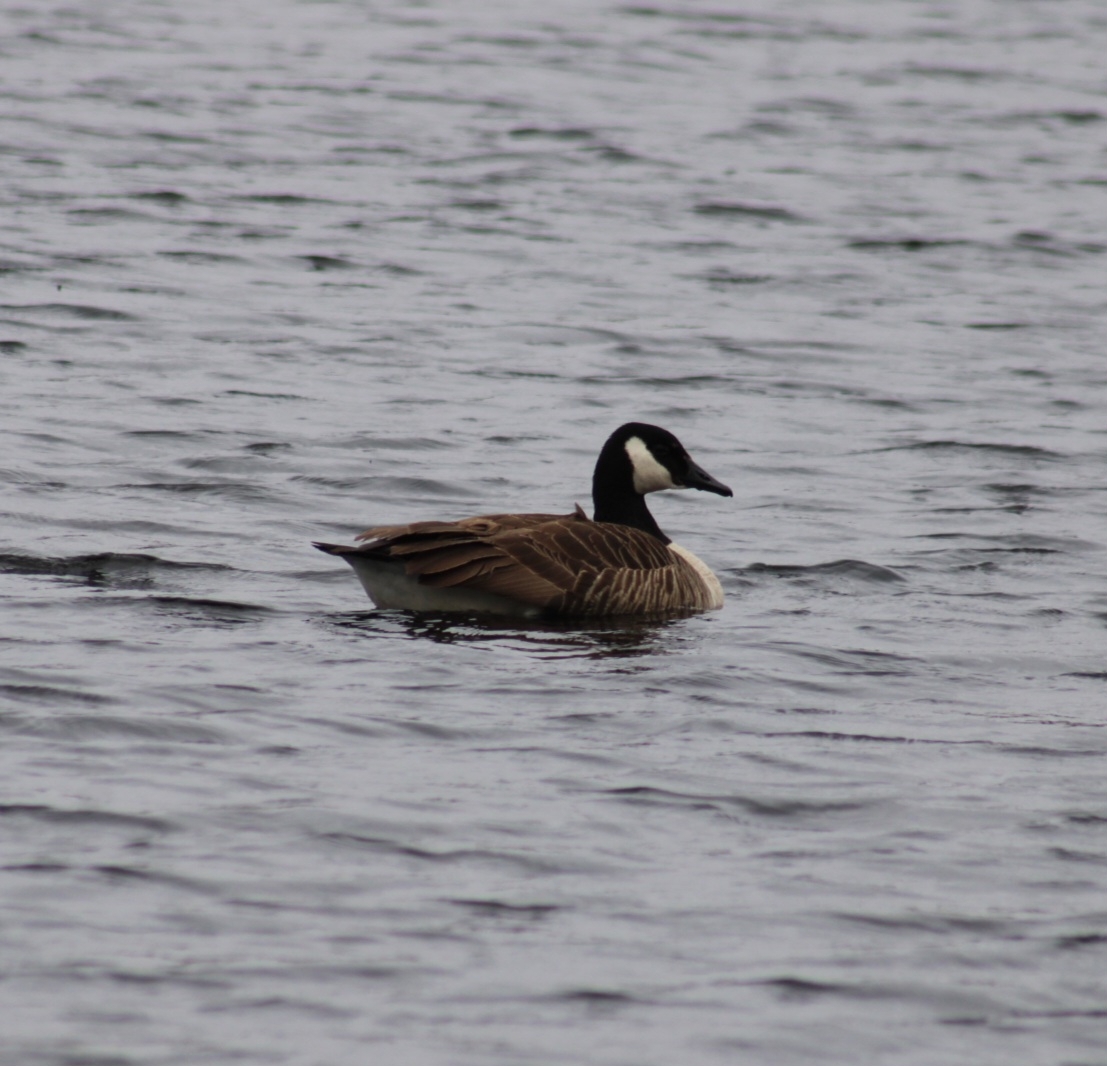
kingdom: Animalia
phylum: Chordata
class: Aves
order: Anseriformes
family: Anatidae
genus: Branta
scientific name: Branta canadensis
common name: Canada goose
